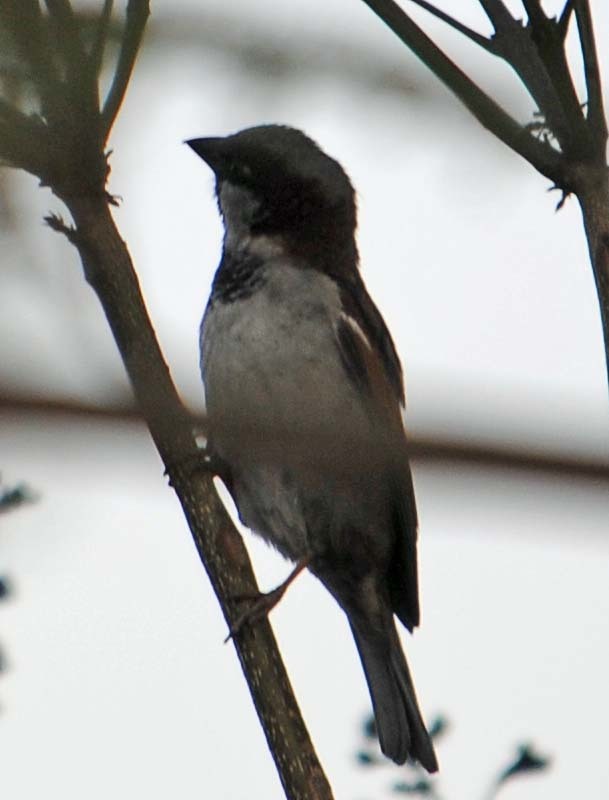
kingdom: Animalia
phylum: Chordata
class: Aves
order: Passeriformes
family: Passeridae
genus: Passer
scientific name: Passer domesticus
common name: House sparrow
